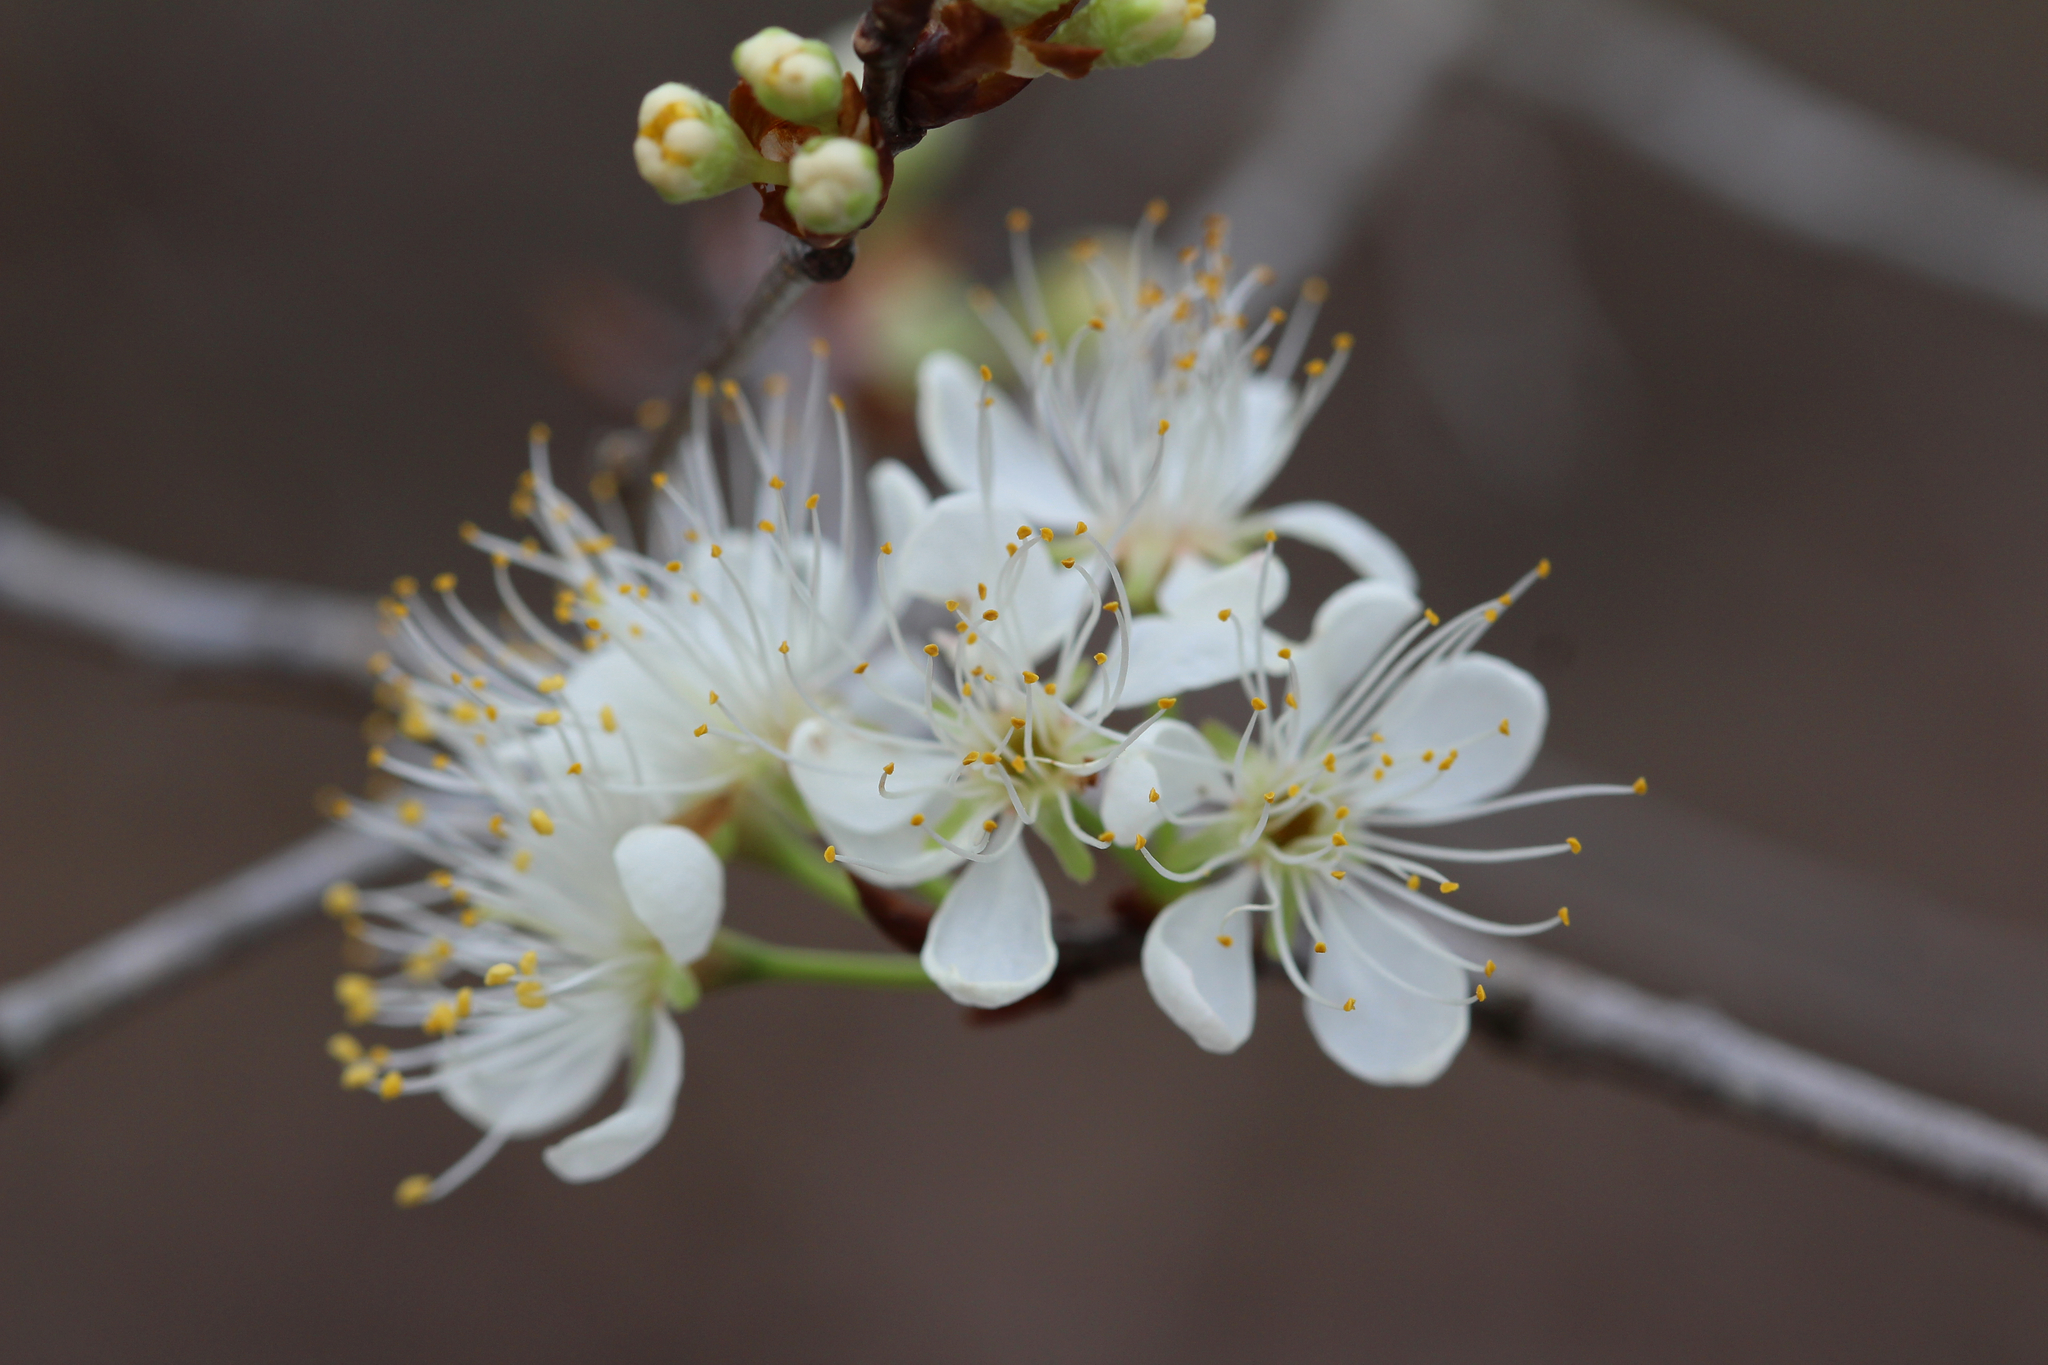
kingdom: Plantae
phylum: Tracheophyta
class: Magnoliopsida
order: Rosales
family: Rosaceae
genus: Prunus
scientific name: Prunus angustifolia
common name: Cherokee plum
